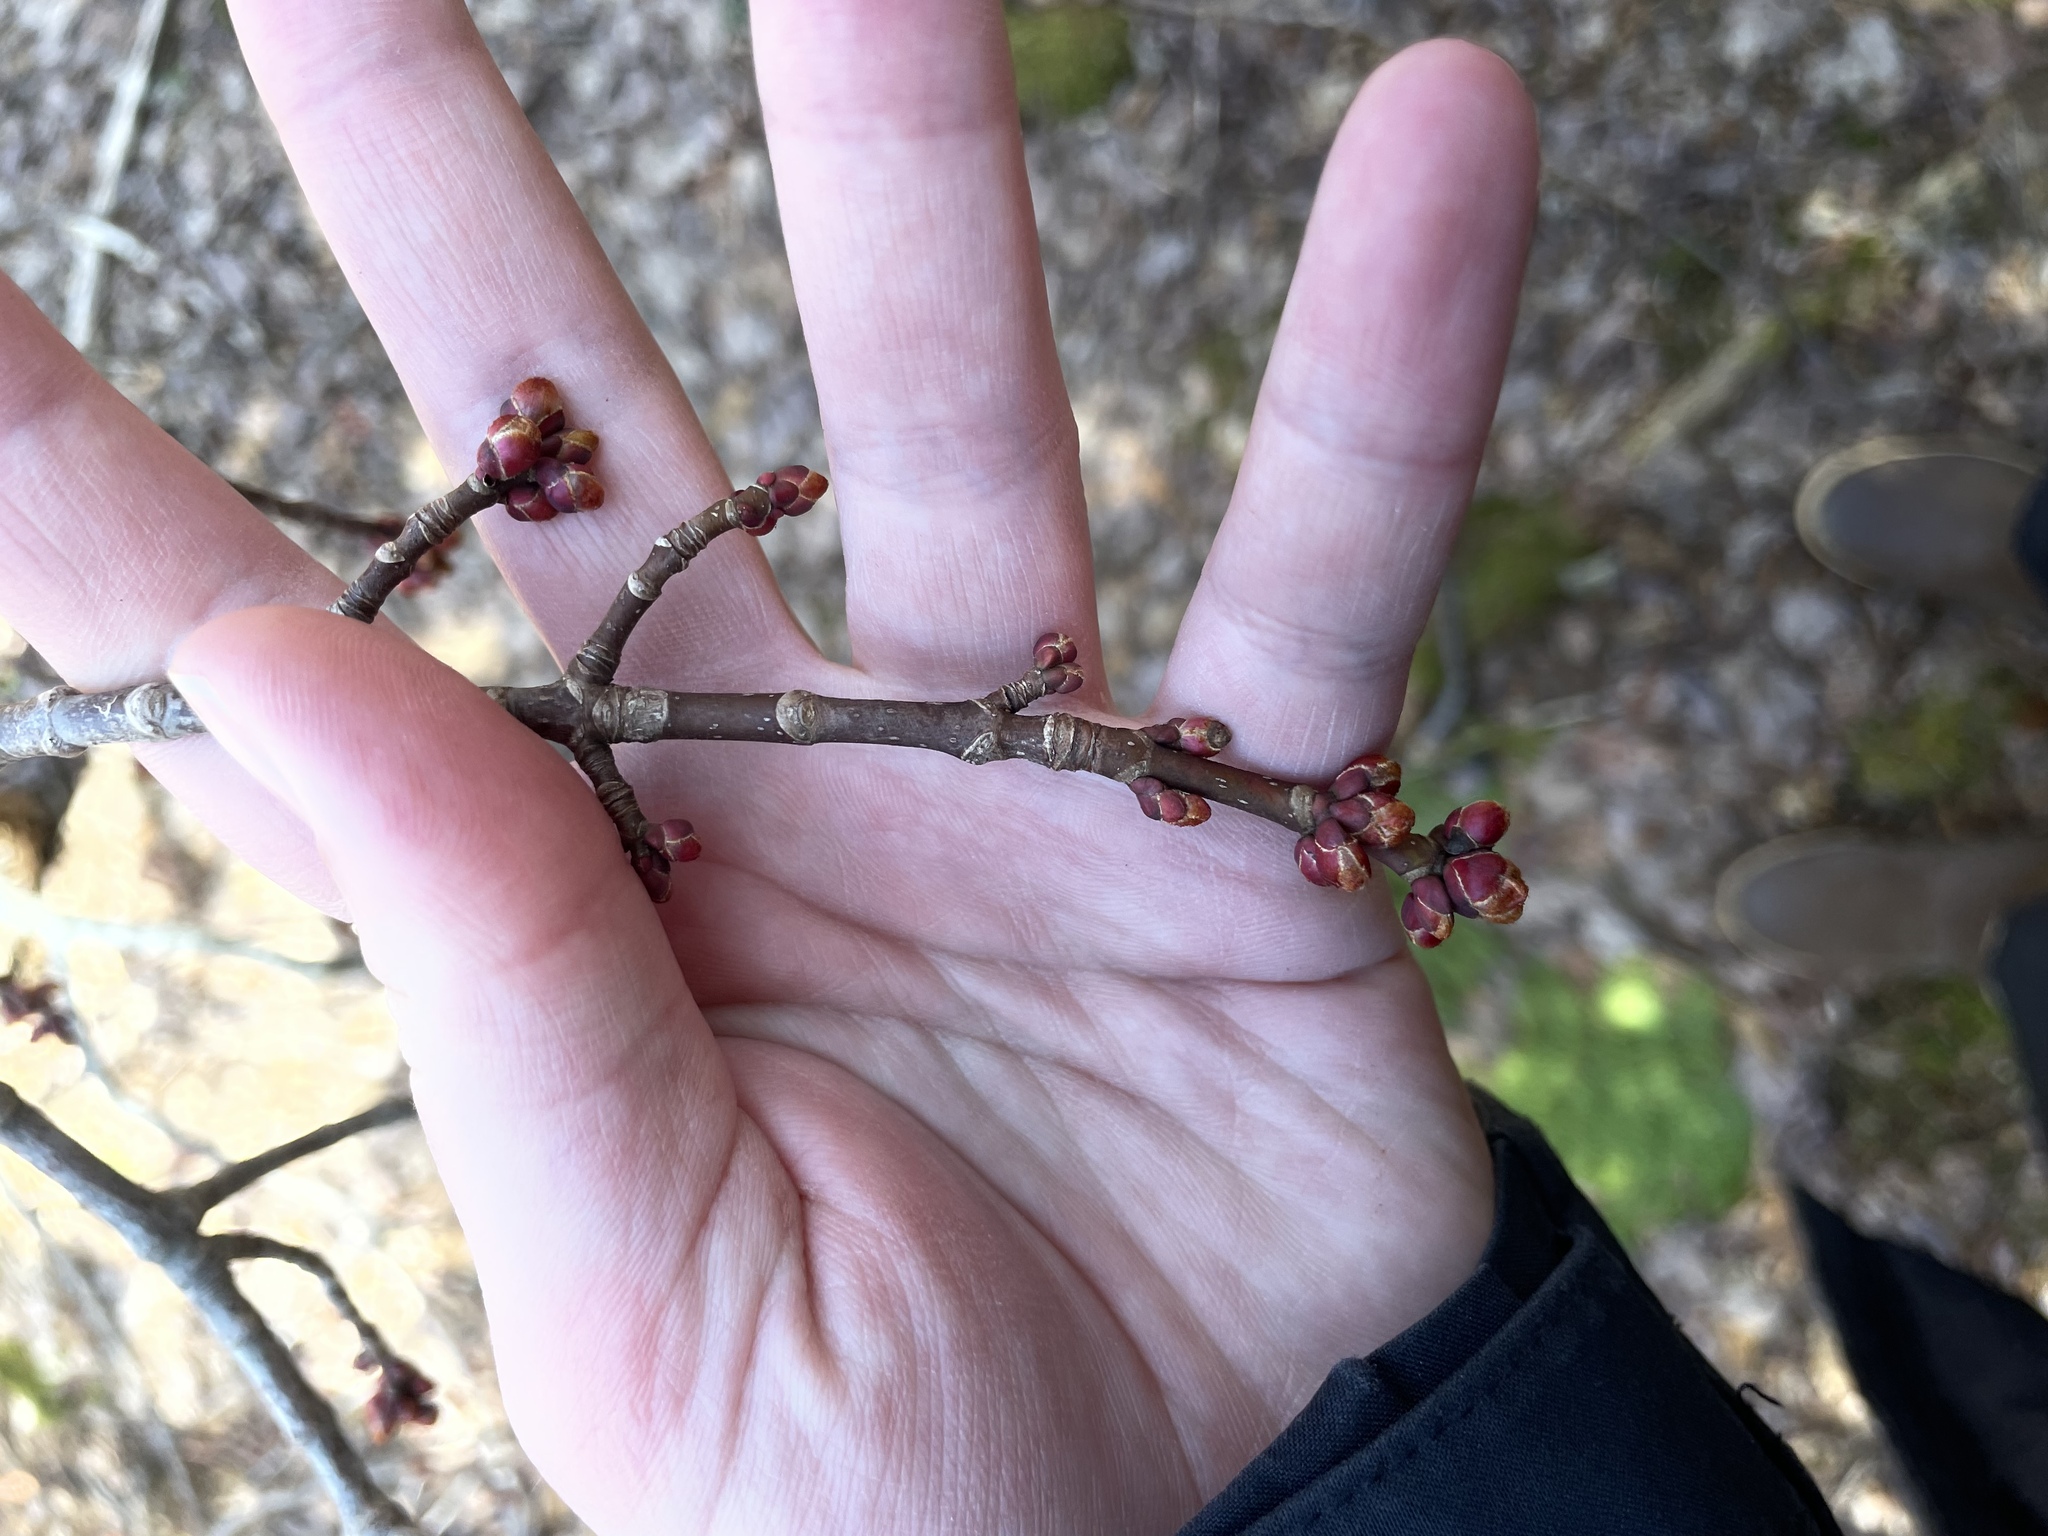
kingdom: Plantae
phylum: Tracheophyta
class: Magnoliopsida
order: Sapindales
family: Sapindaceae
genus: Acer
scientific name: Acer rubrum
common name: Red maple
